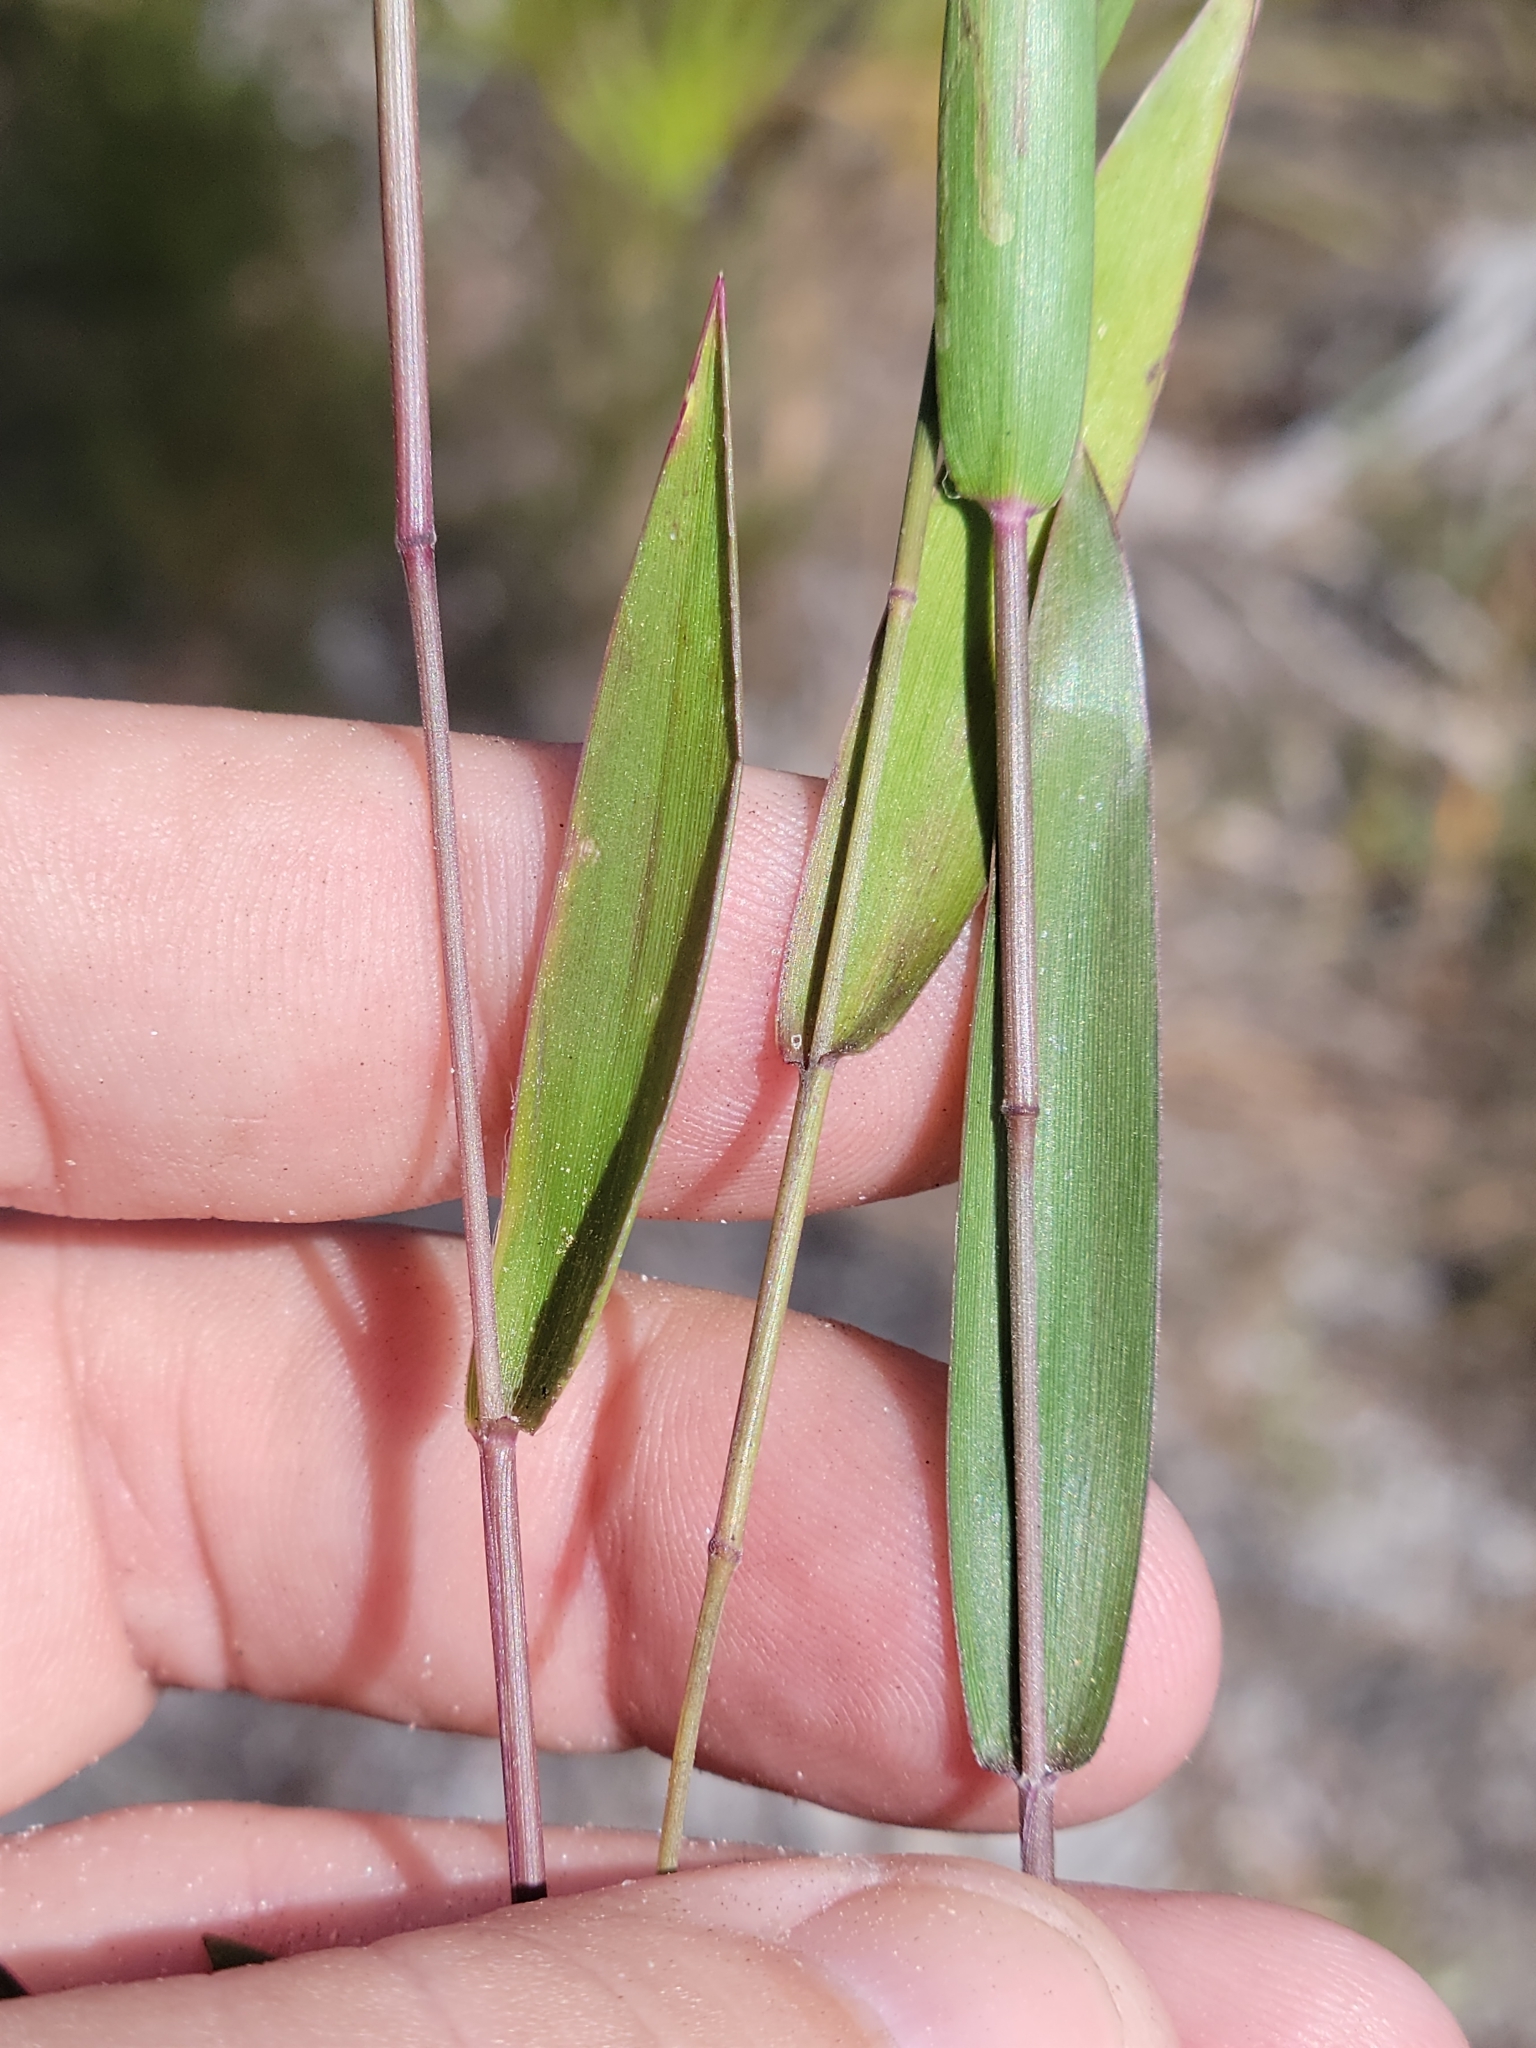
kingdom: Plantae
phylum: Tracheophyta
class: Liliopsida
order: Poales
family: Poaceae
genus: Dichanthelium
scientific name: Dichanthelium webberianum
